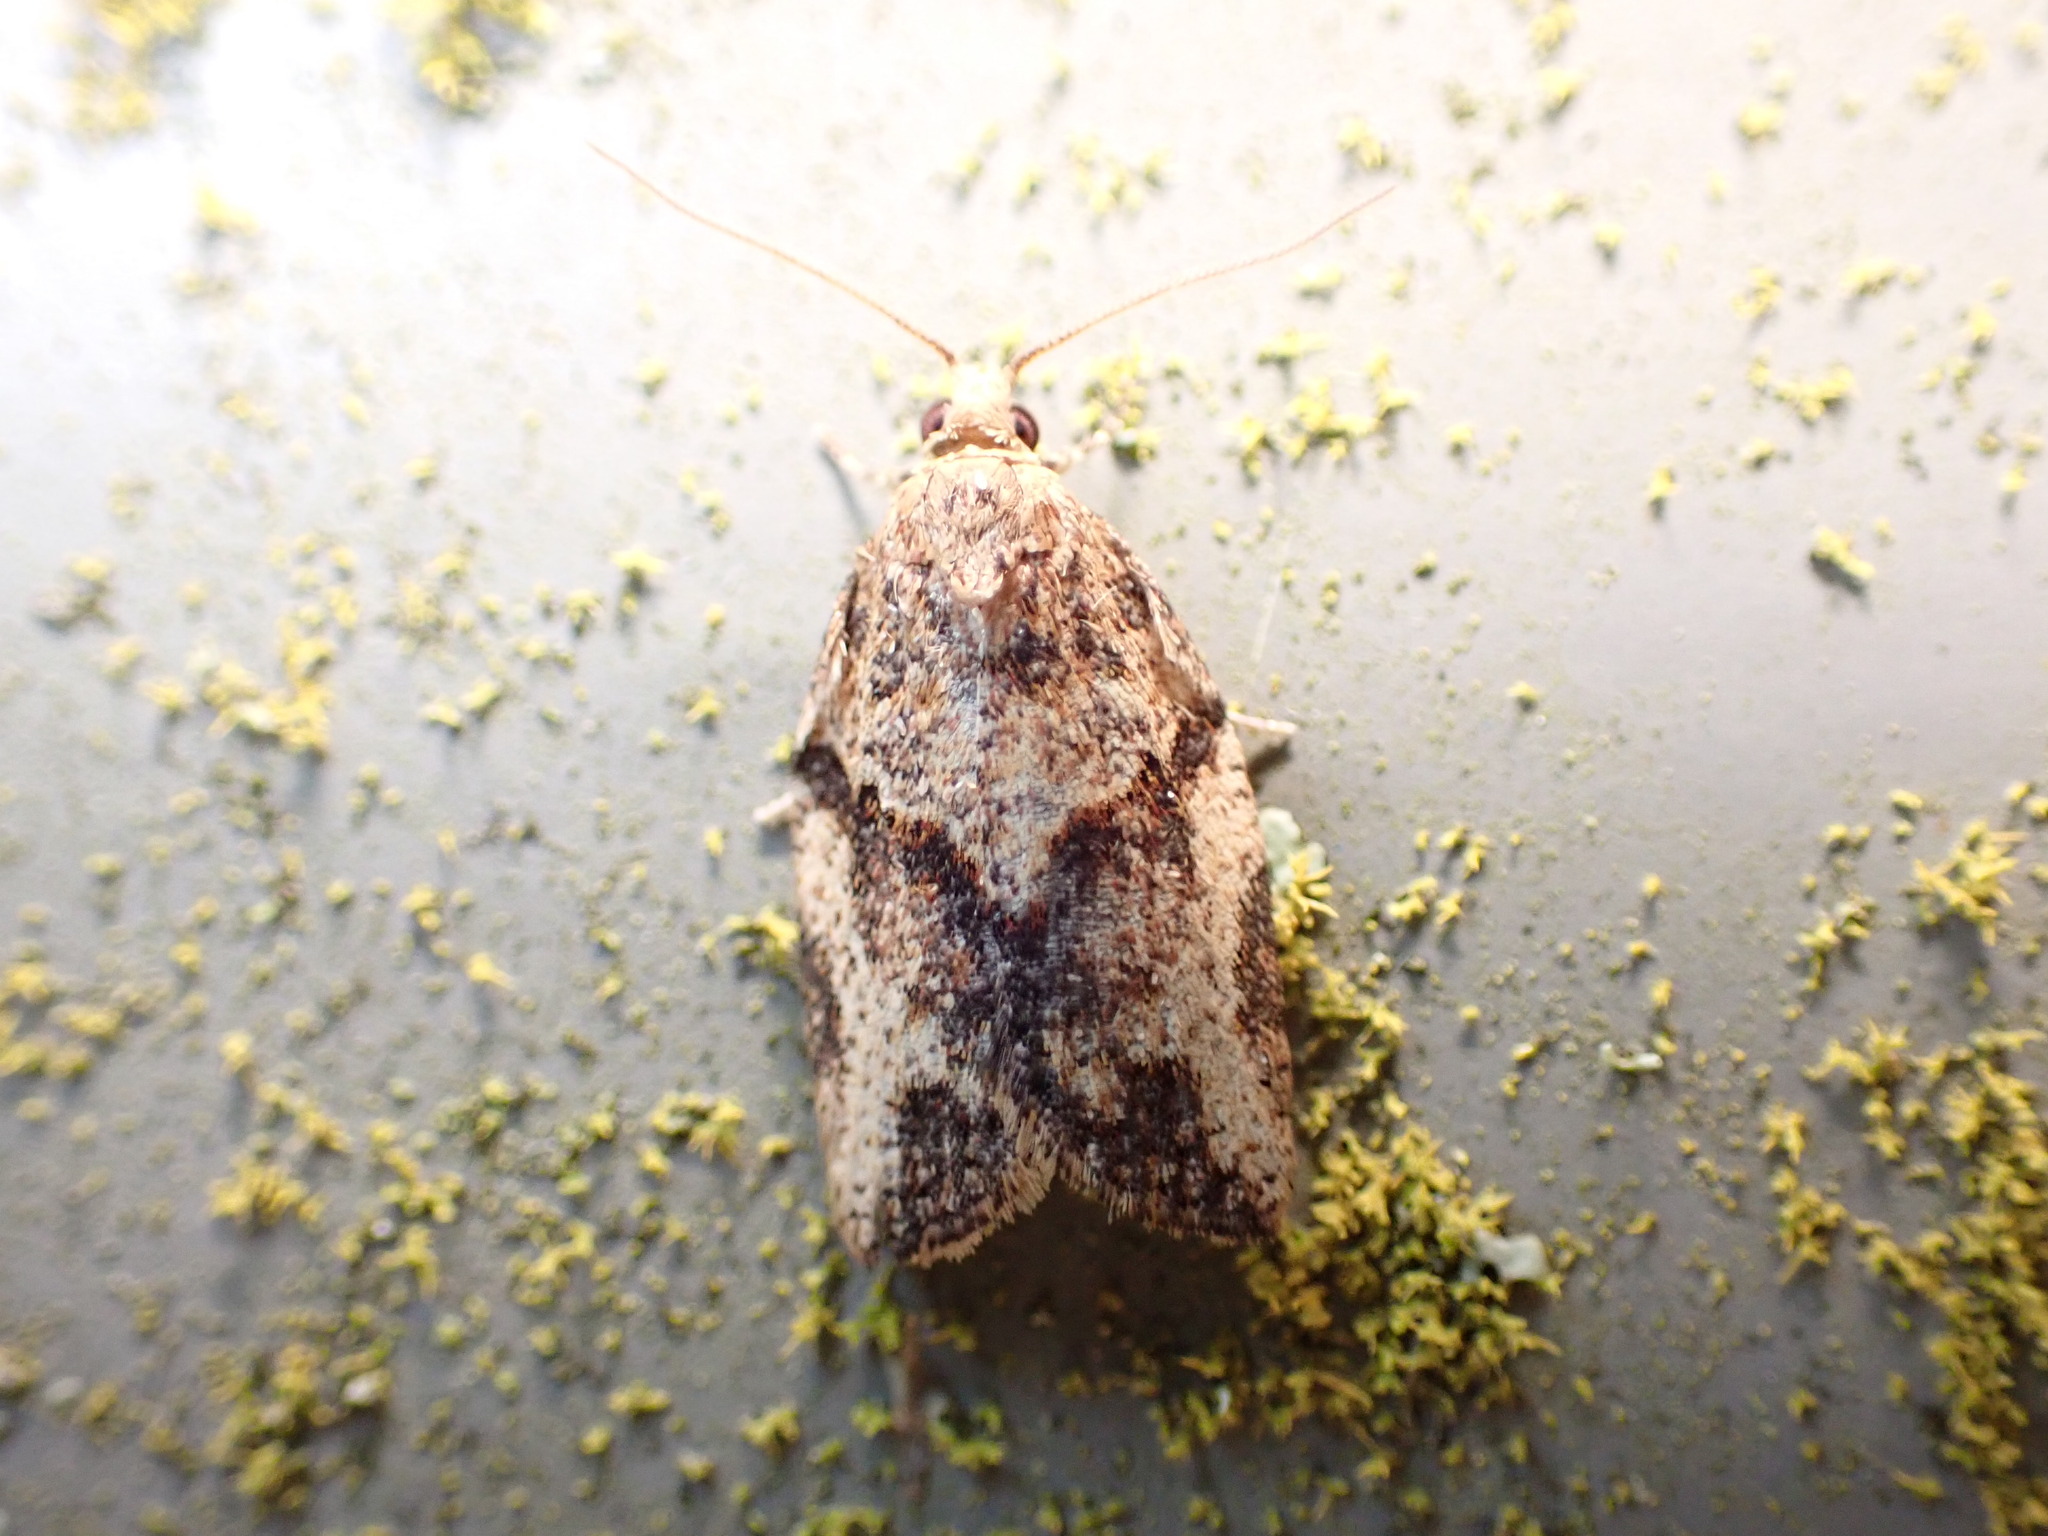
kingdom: Animalia
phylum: Arthropoda
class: Insecta
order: Lepidoptera
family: Tortricidae
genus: Epiphyas
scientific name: Epiphyas postvittana
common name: Light brown apple moth
